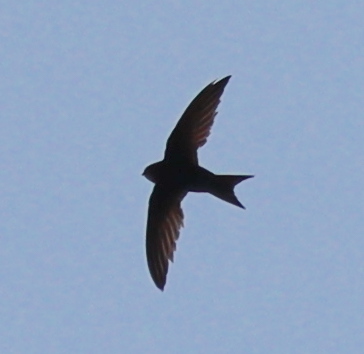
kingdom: Animalia
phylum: Chordata
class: Aves
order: Apodiformes
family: Apodidae
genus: Apus
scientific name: Apus apus
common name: Common swift
